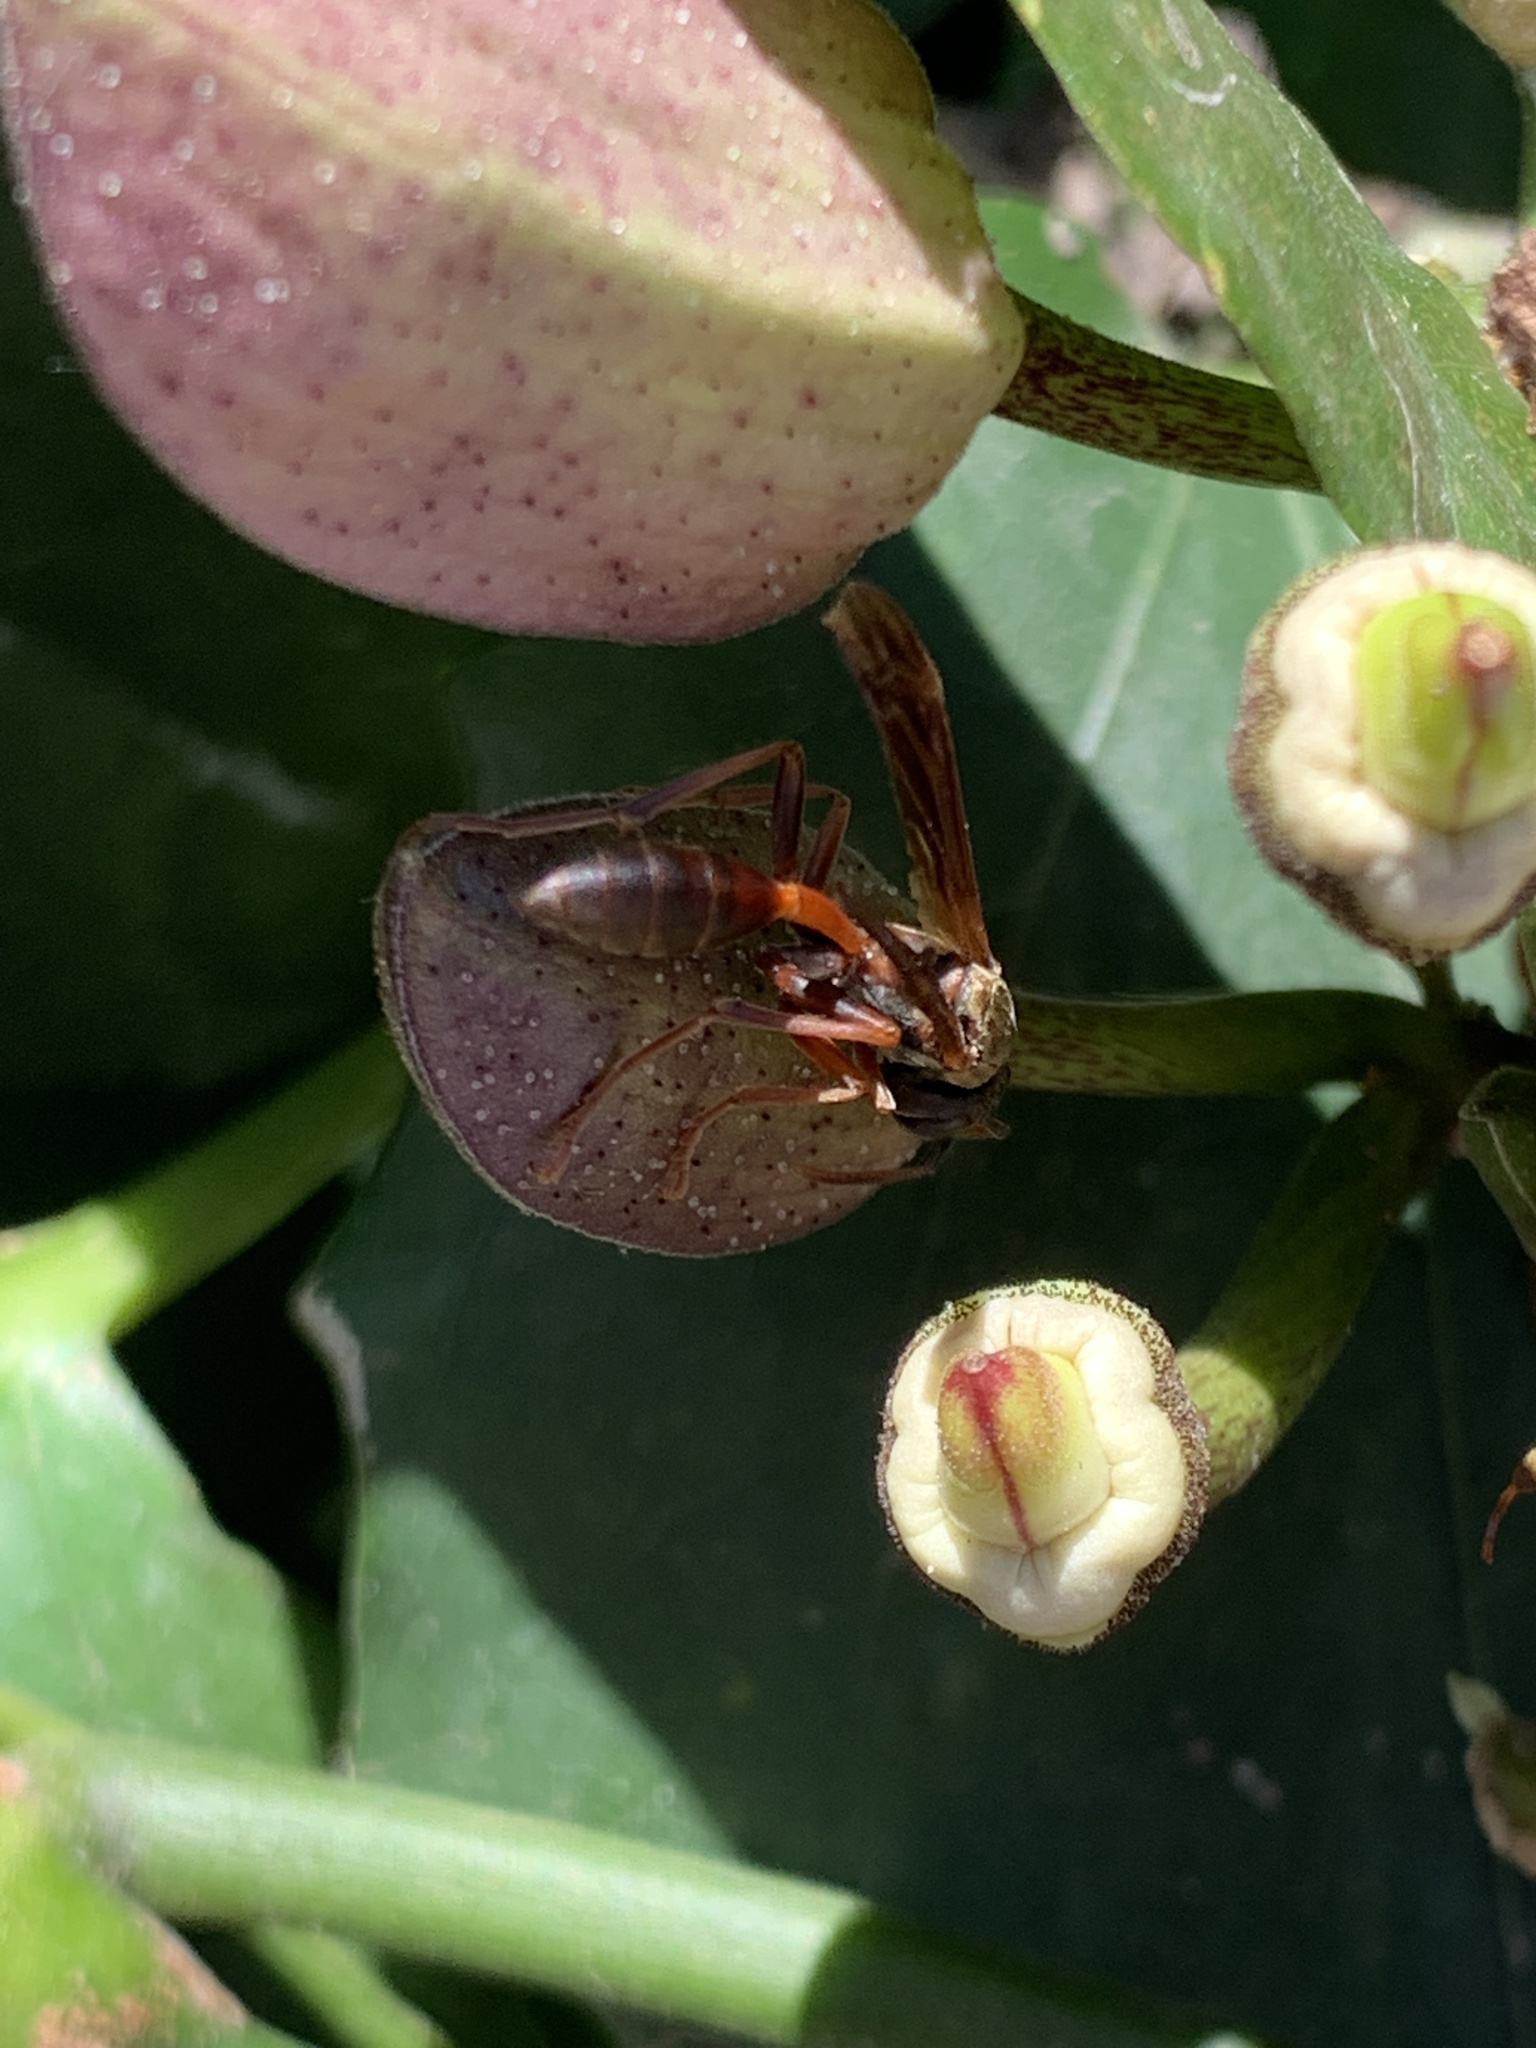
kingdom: Animalia
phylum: Arthropoda
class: Insecta
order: Hymenoptera
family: Vespidae
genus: Mischocyttarus
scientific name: Mischocyttarus drewseni
